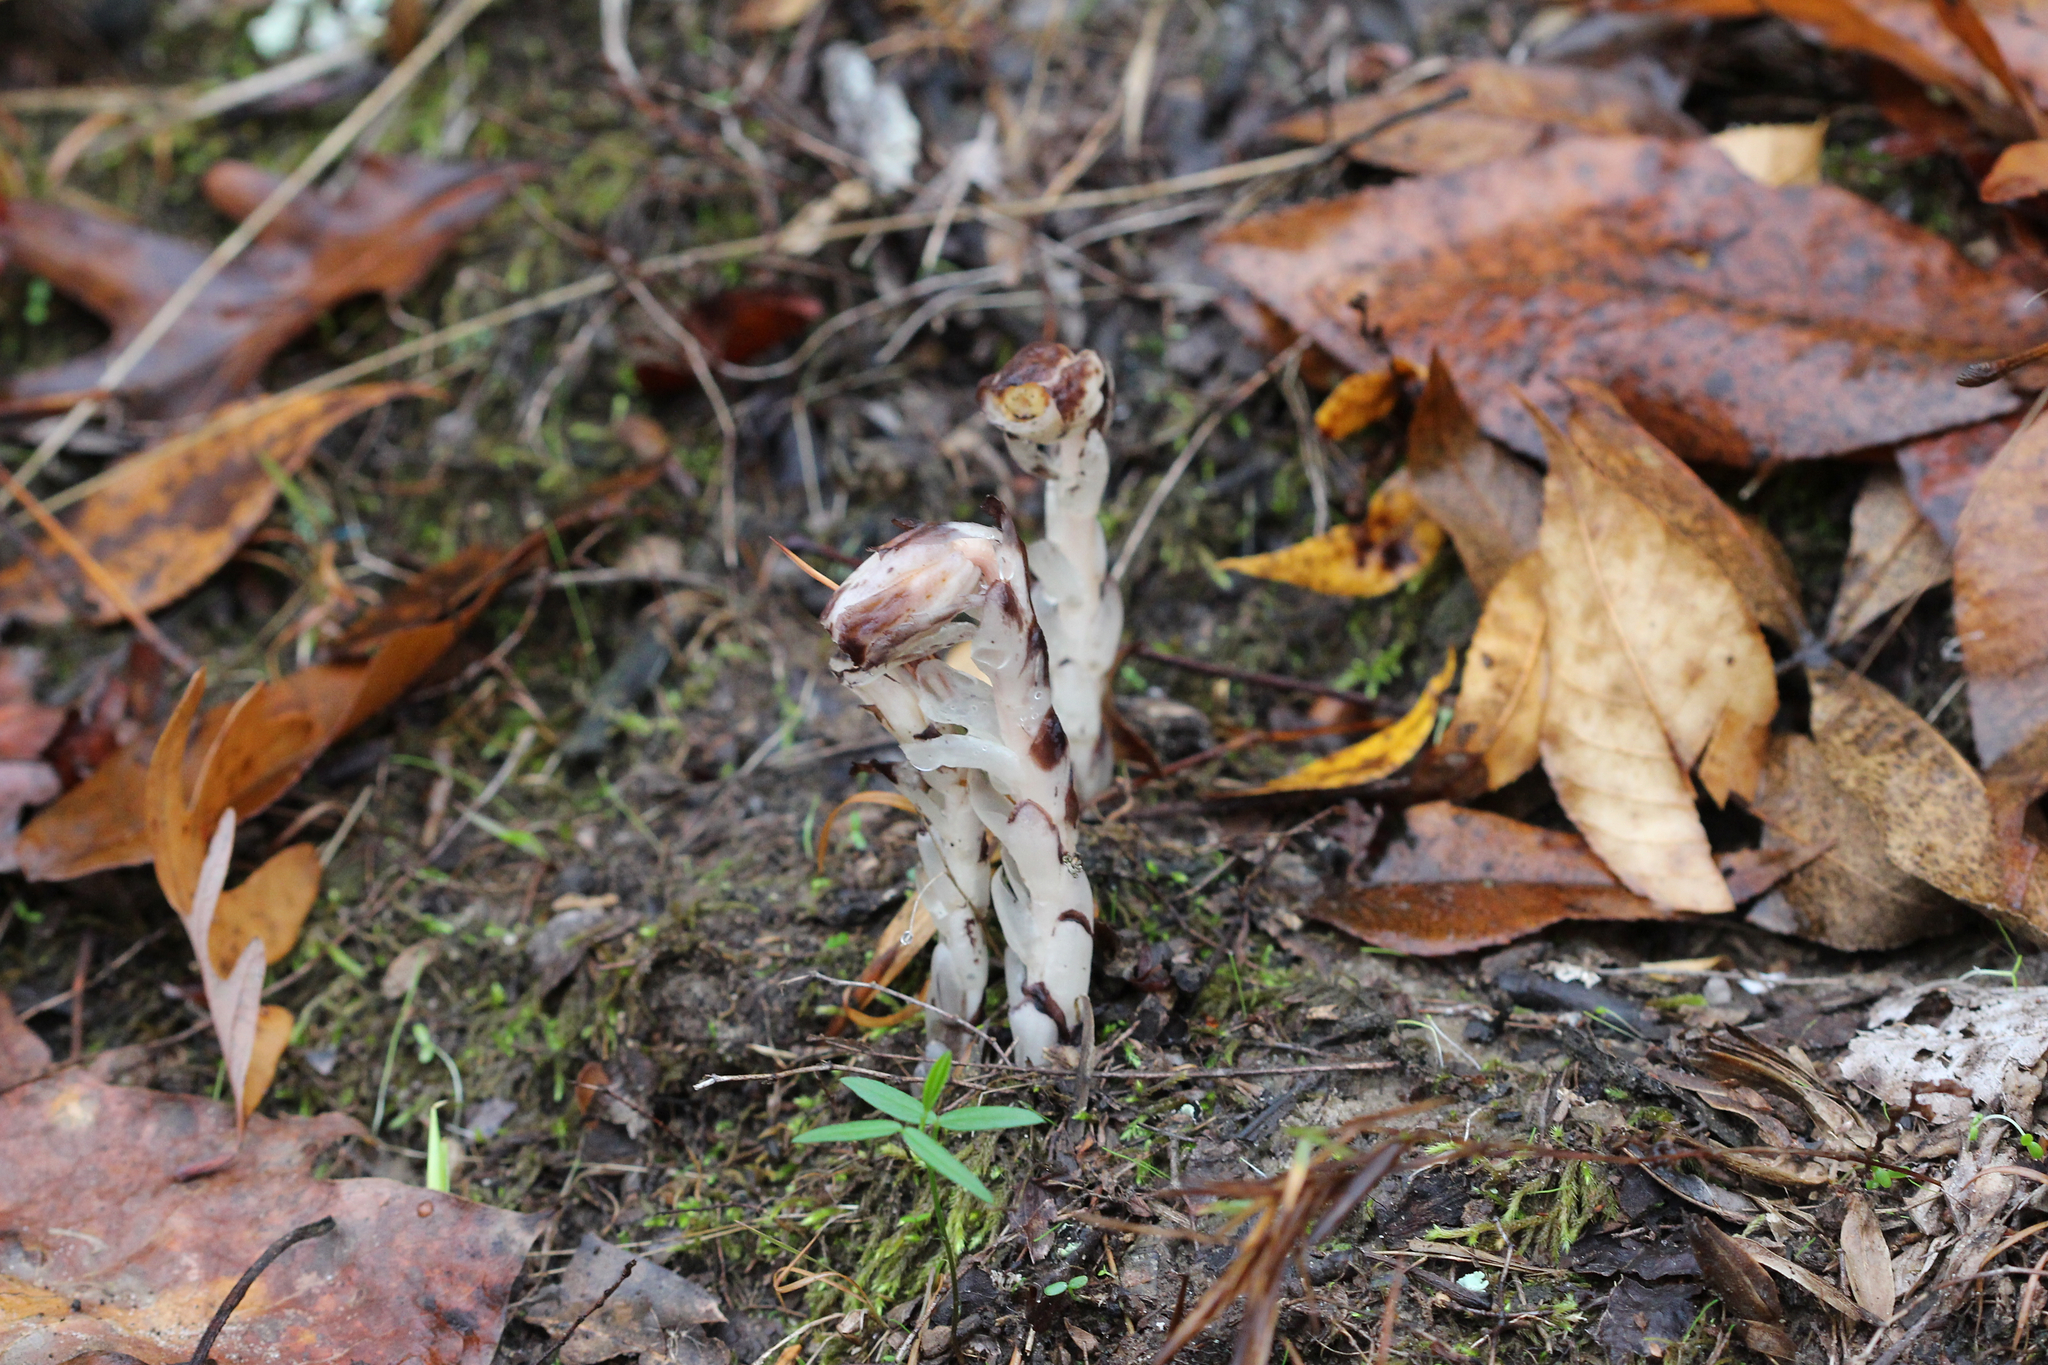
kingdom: Plantae
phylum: Tracheophyta
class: Magnoliopsida
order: Ericales
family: Ericaceae
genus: Monotropa
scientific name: Monotropa uniflora
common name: Convulsion root
